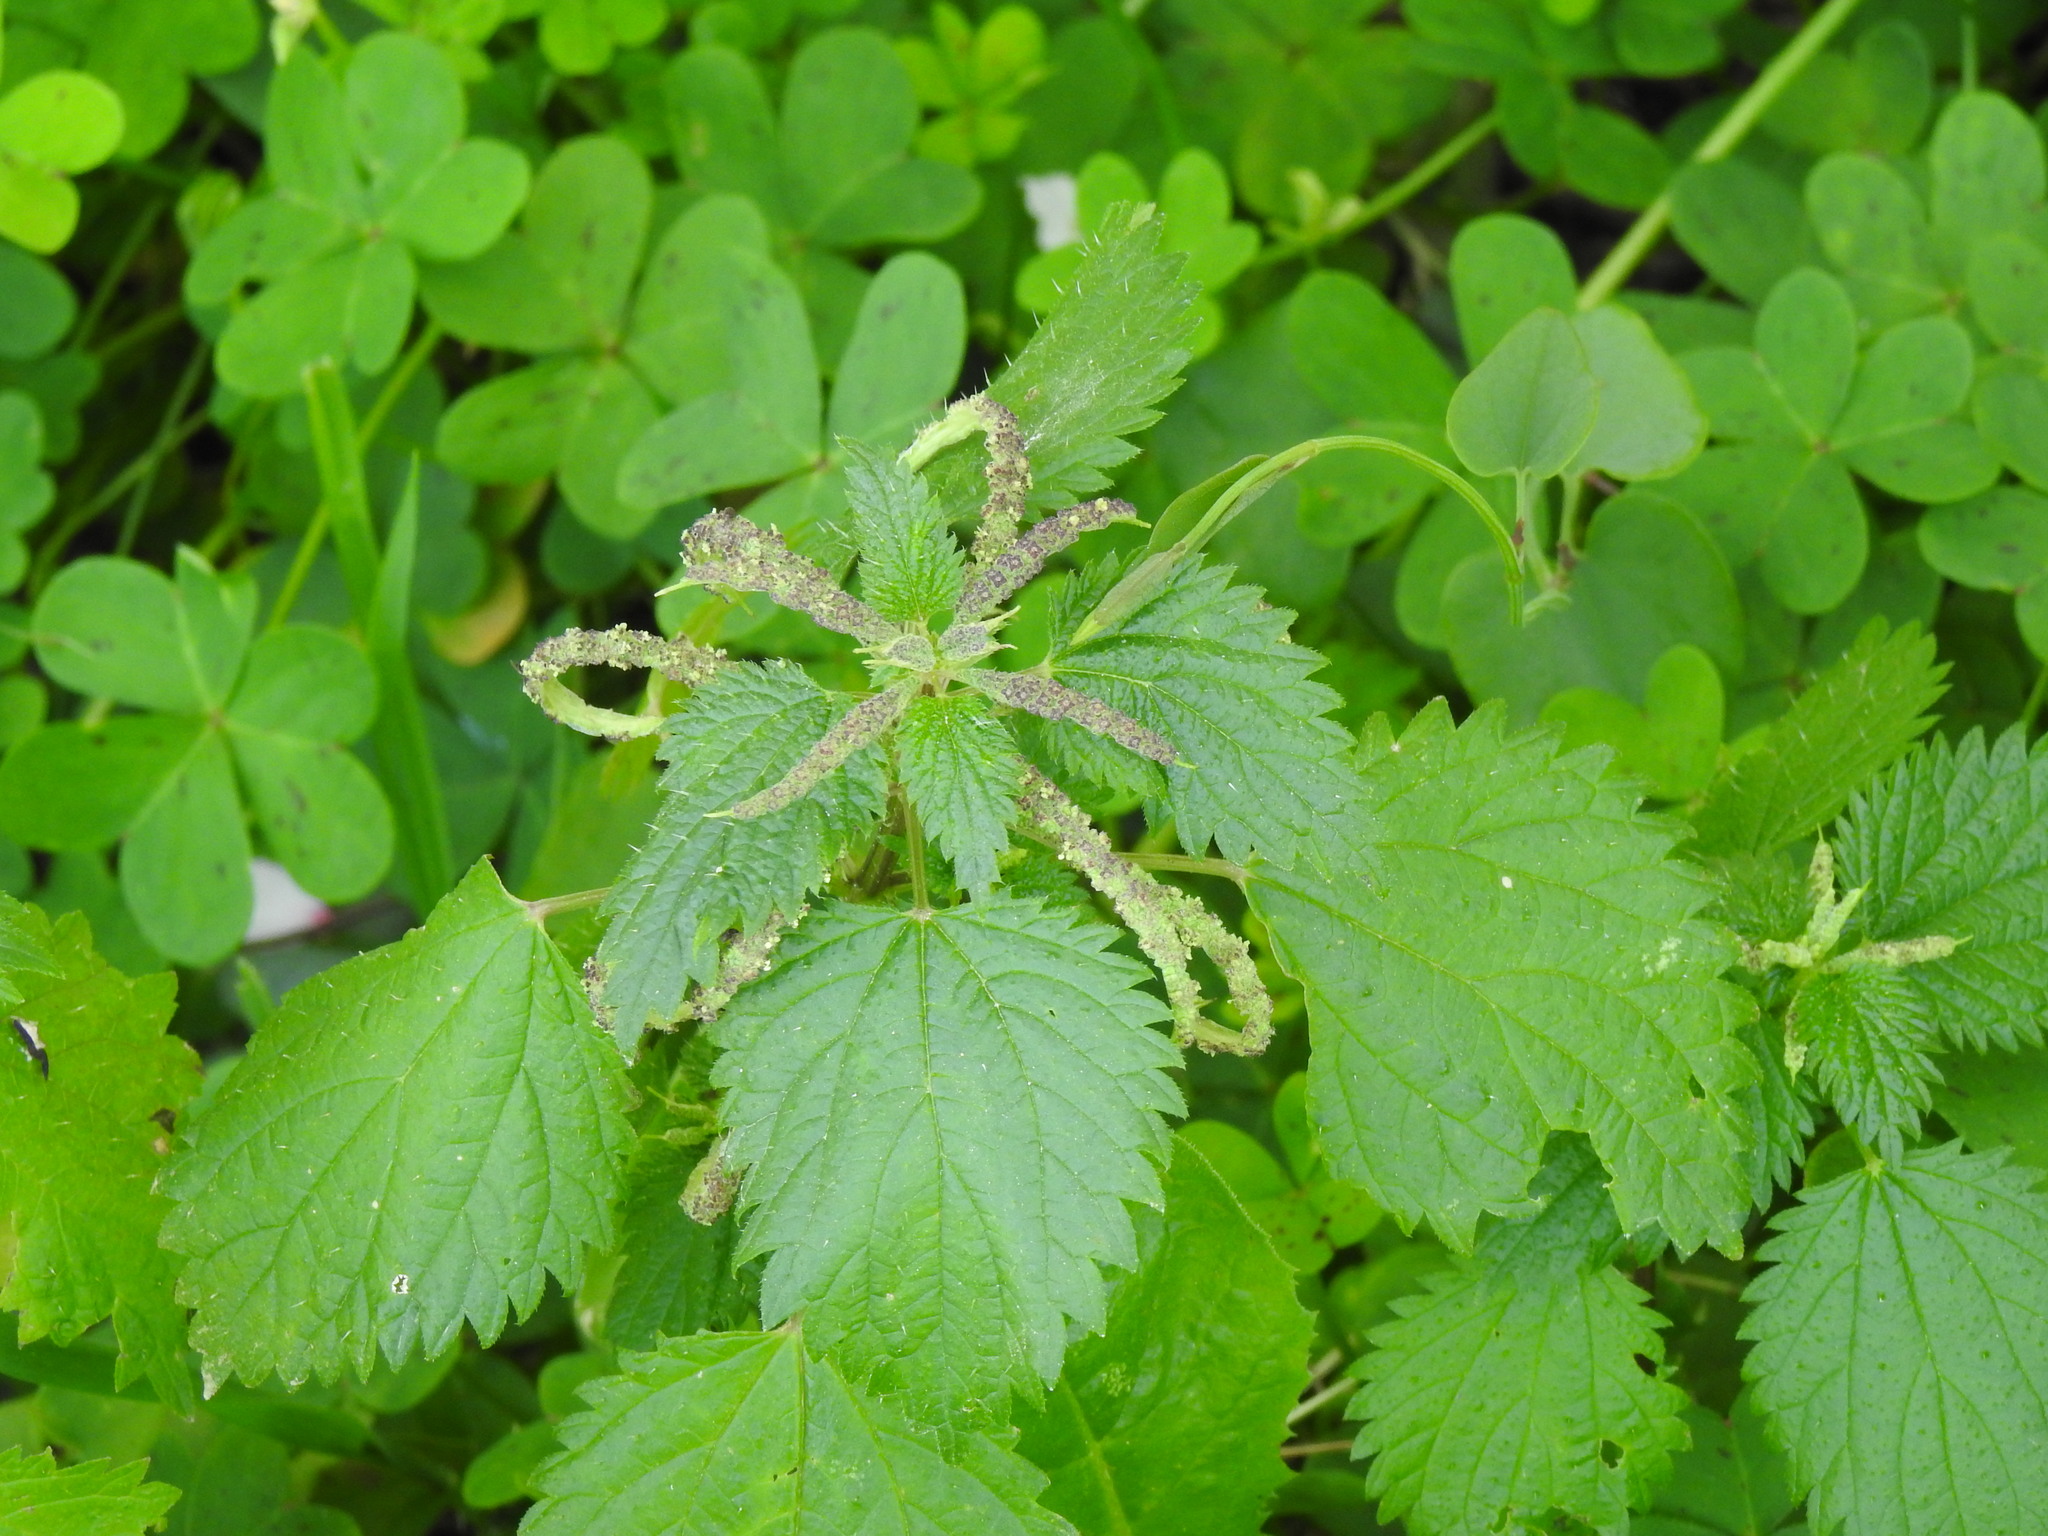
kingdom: Plantae
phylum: Tracheophyta
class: Magnoliopsida
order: Rosales
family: Urticaceae
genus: Urtica
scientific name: Urtica membranacea
